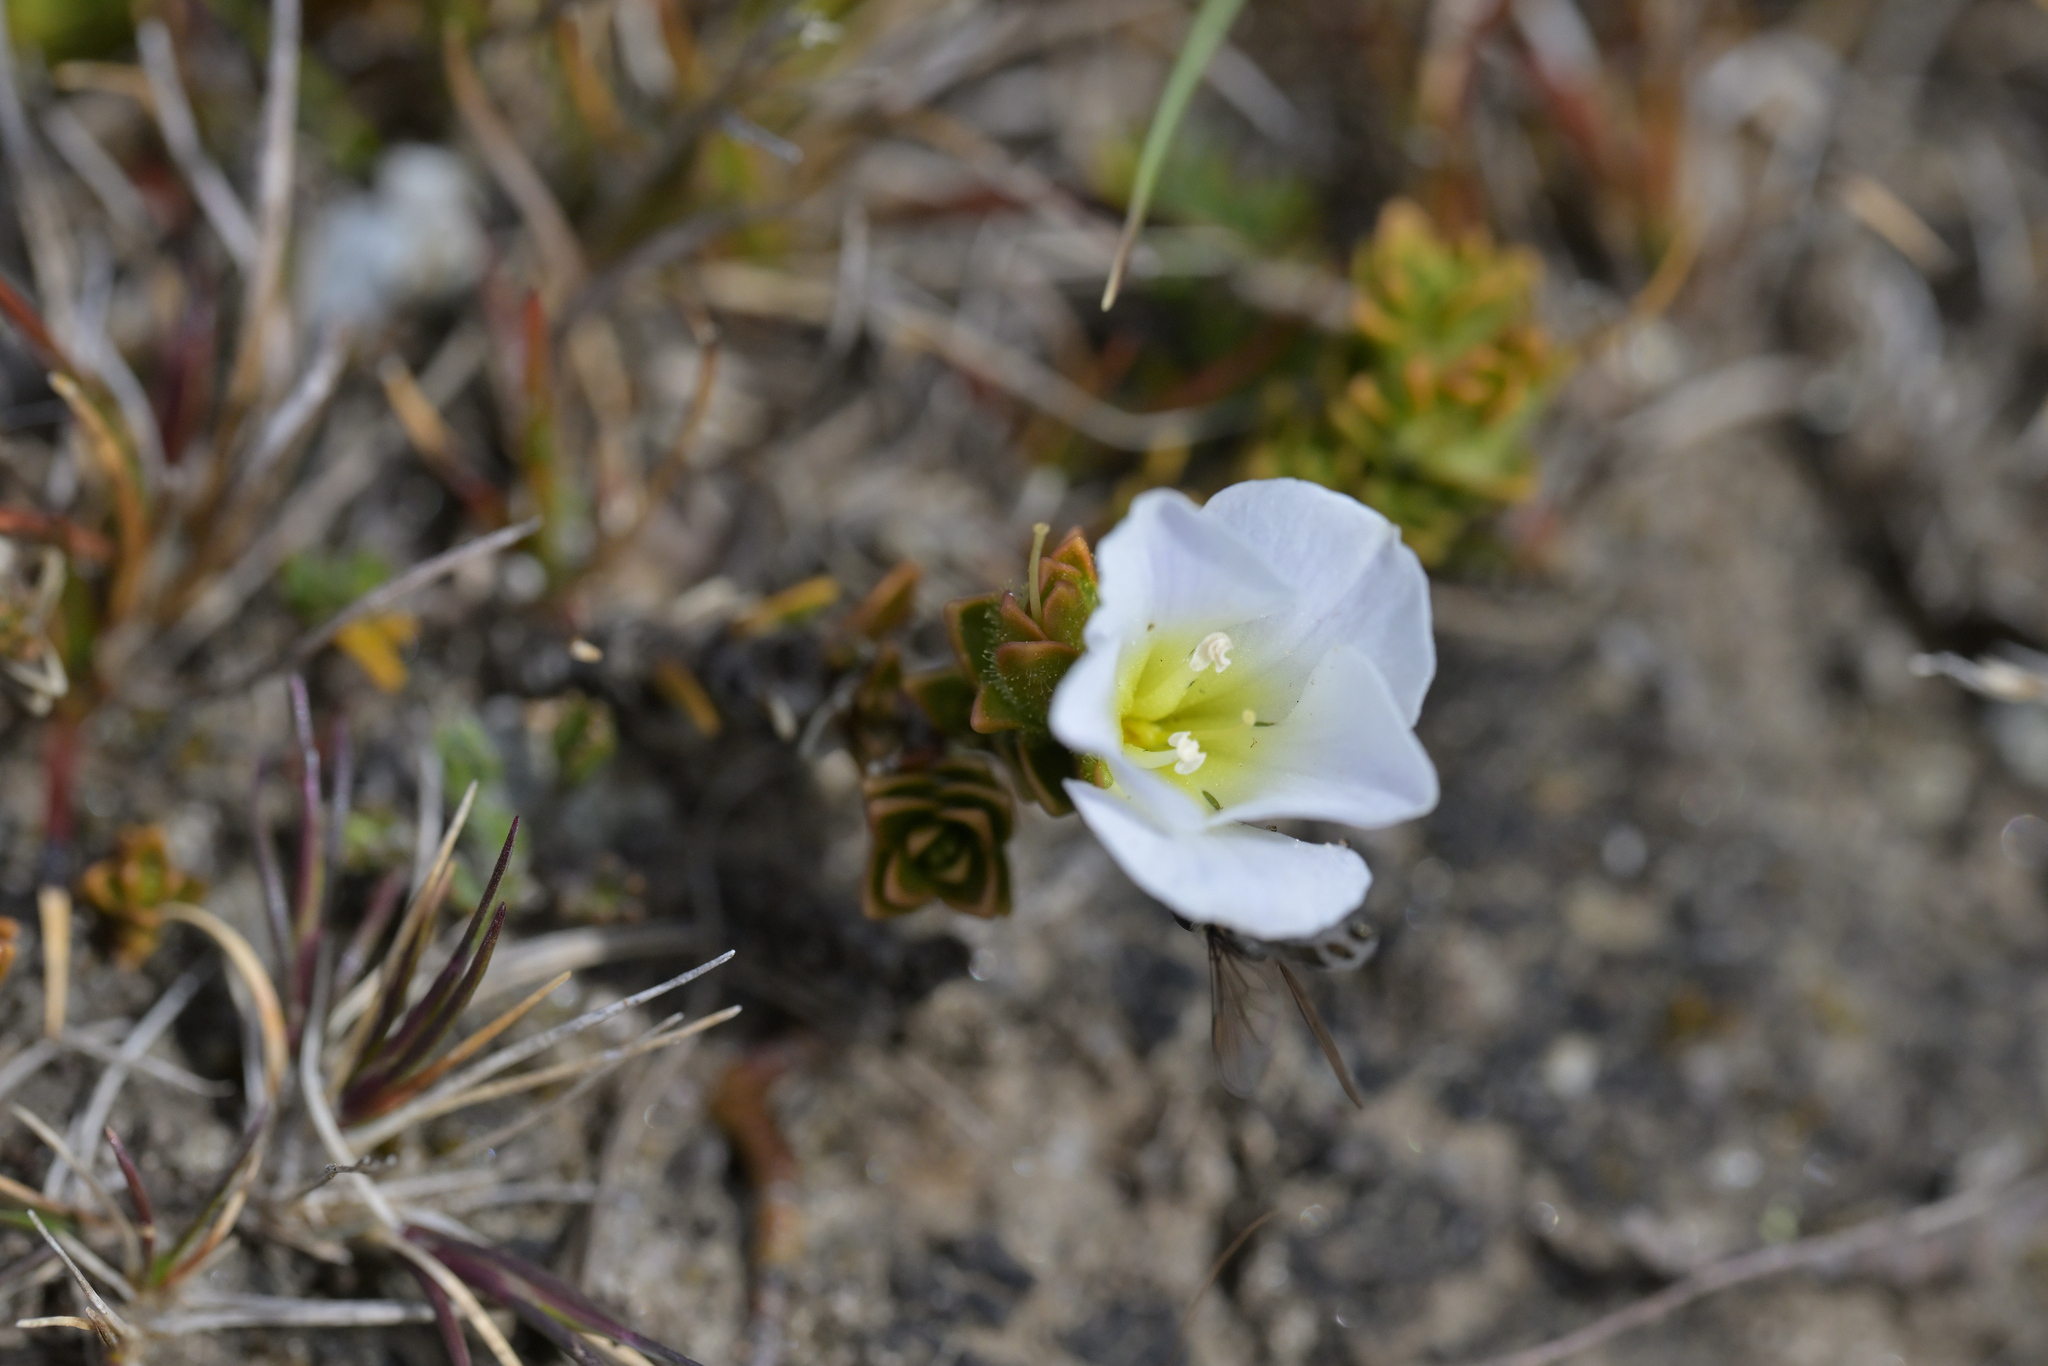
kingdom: Plantae
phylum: Tracheophyta
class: Magnoliopsida
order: Lamiales
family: Plantaginaceae
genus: Veronica
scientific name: Veronica densifolia
